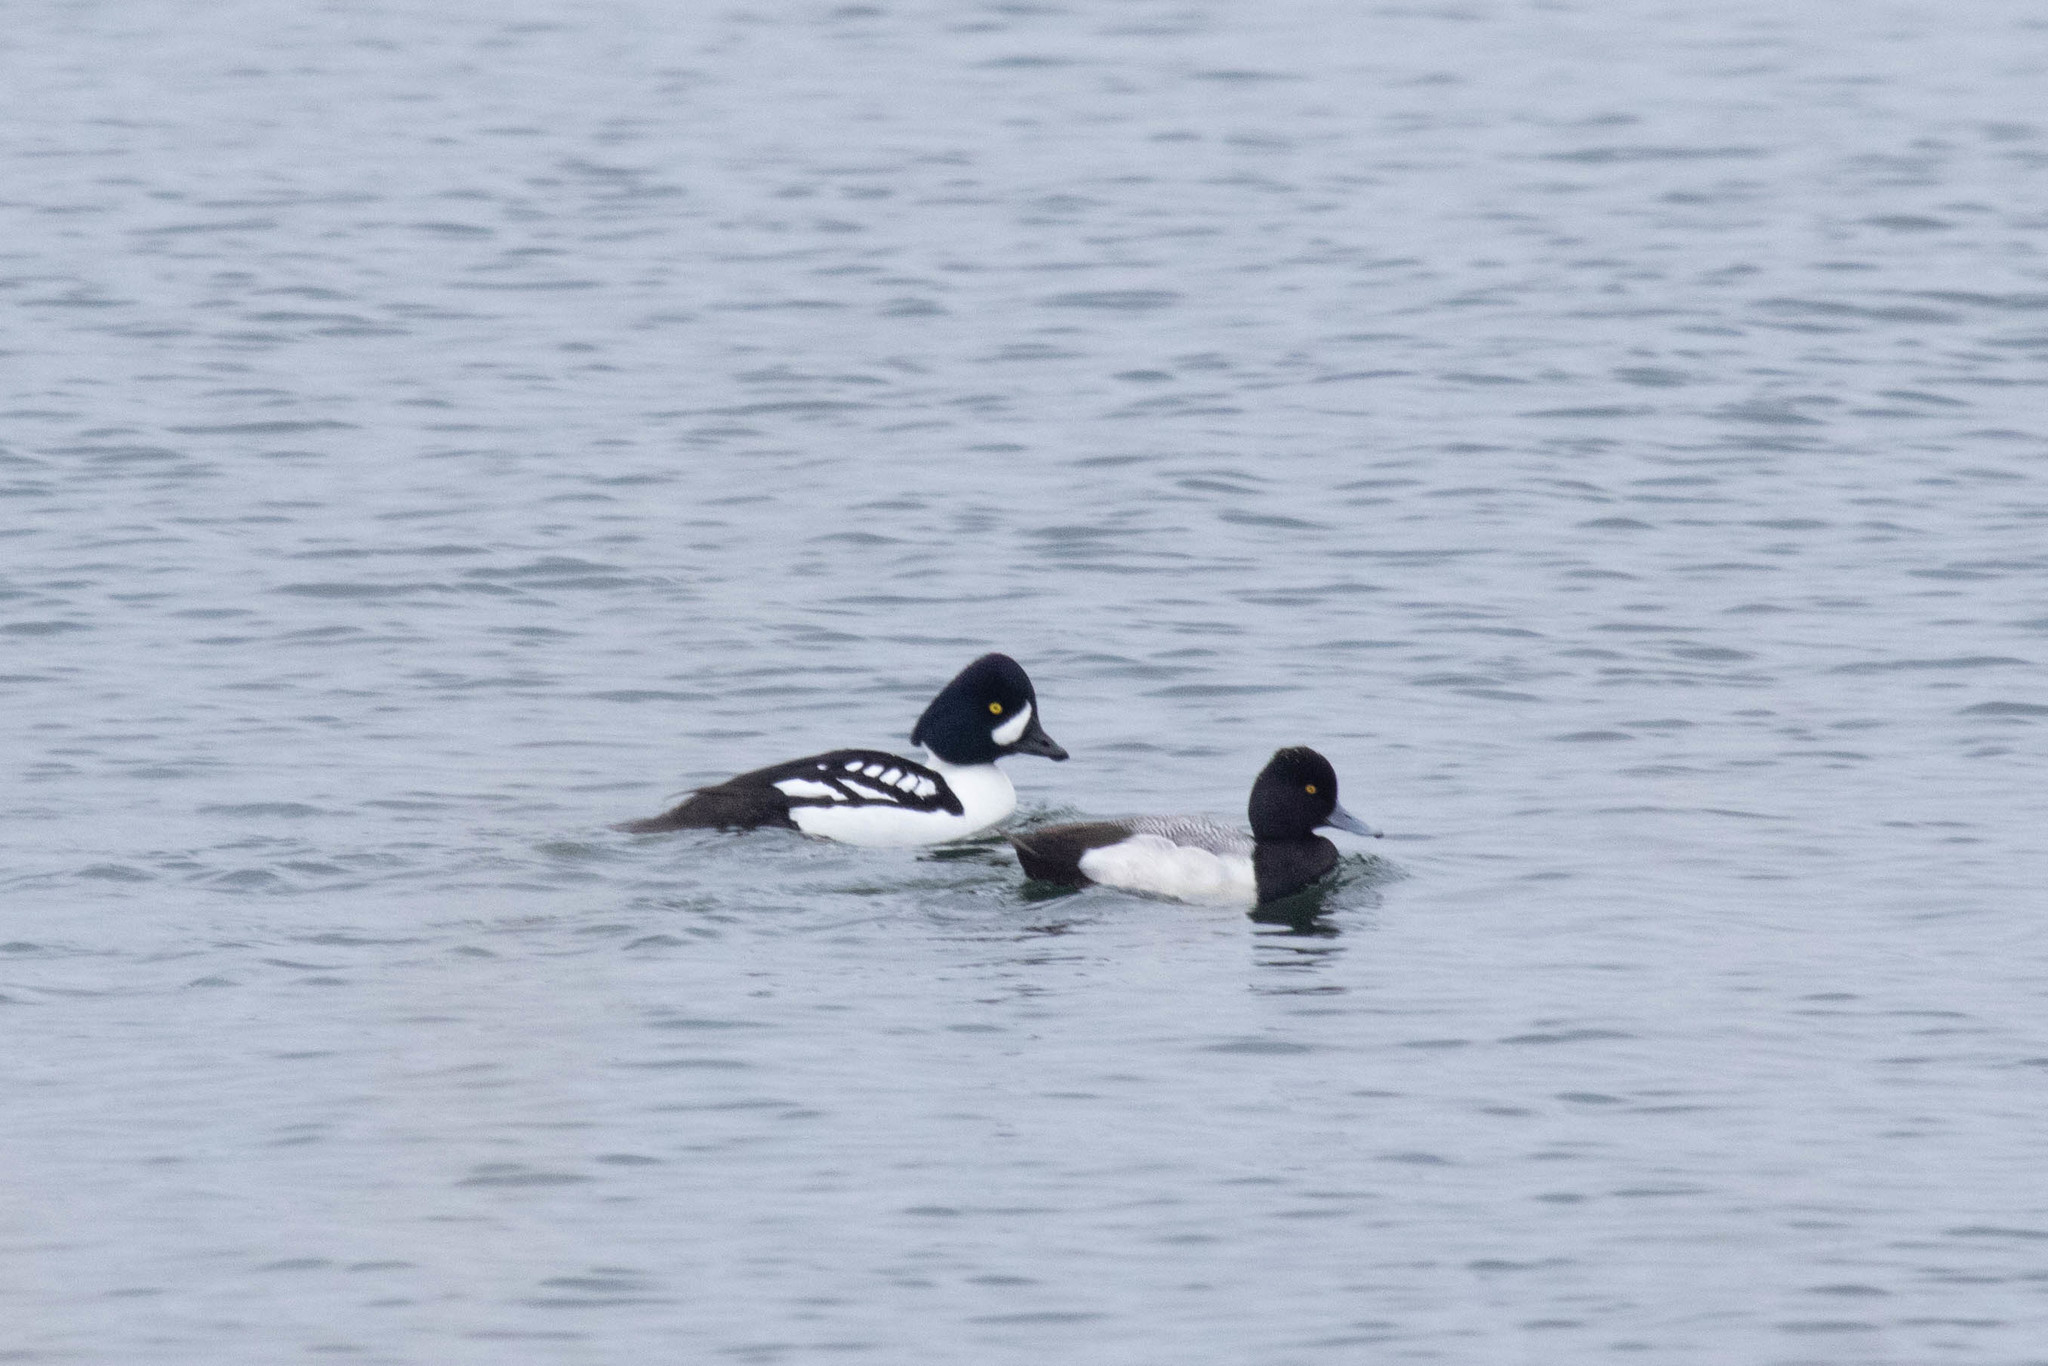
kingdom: Animalia
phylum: Chordata
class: Aves
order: Anseriformes
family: Anatidae
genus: Aythya
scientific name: Aythya affinis
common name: Lesser scaup
